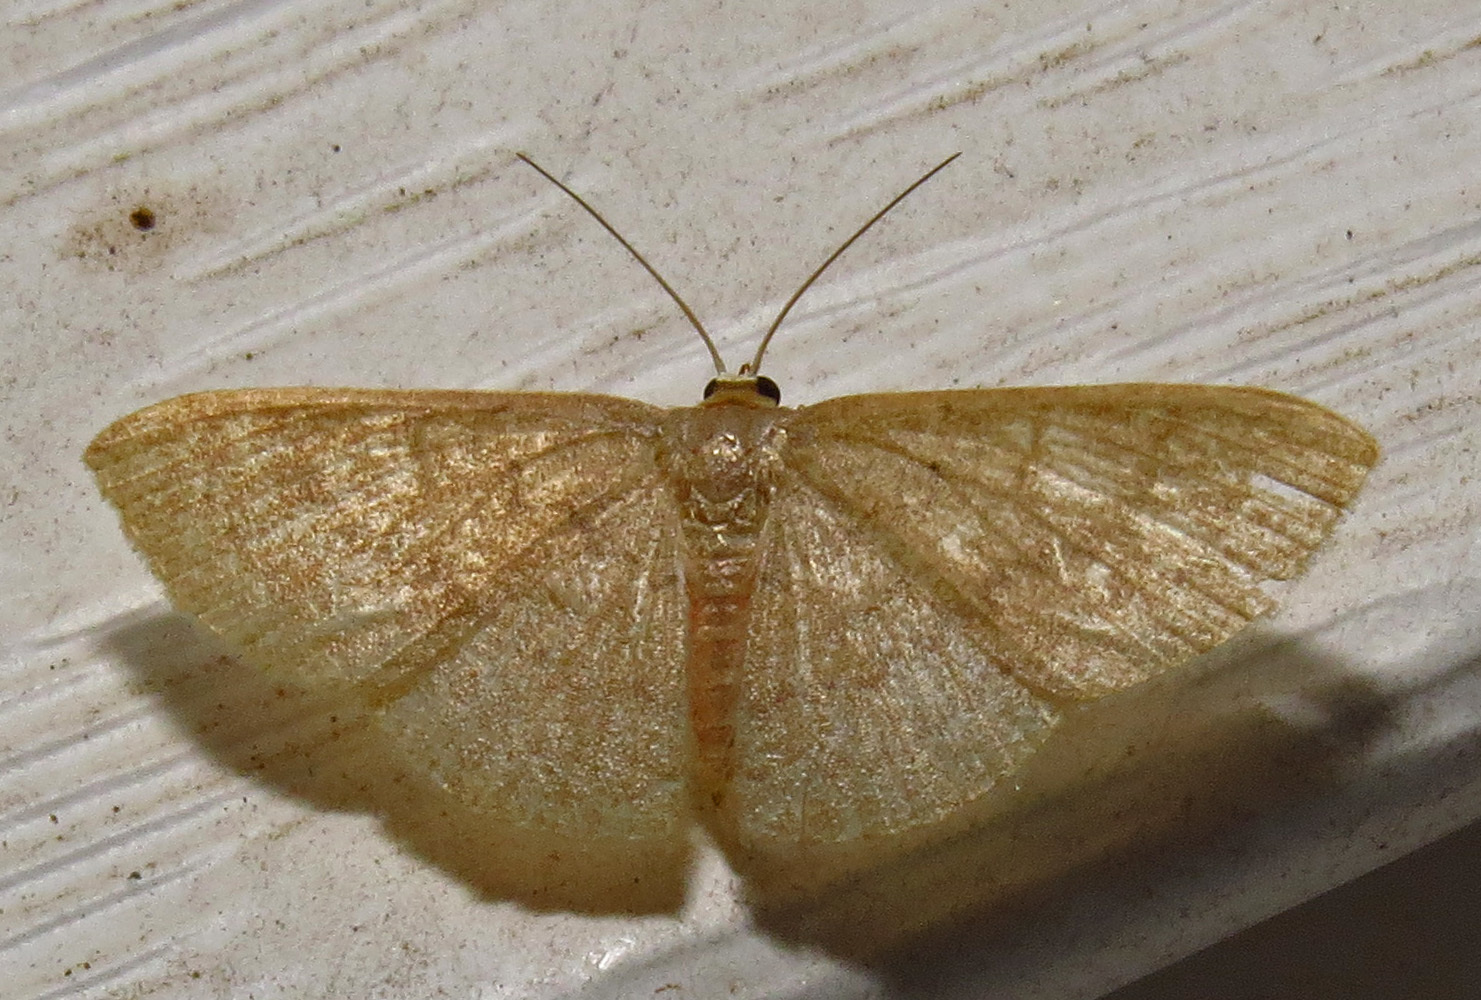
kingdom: Animalia
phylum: Arthropoda
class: Insecta
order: Lepidoptera
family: Geometridae
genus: Pleuroprucha
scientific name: Pleuroprucha insulsaria
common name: Common tan wave
